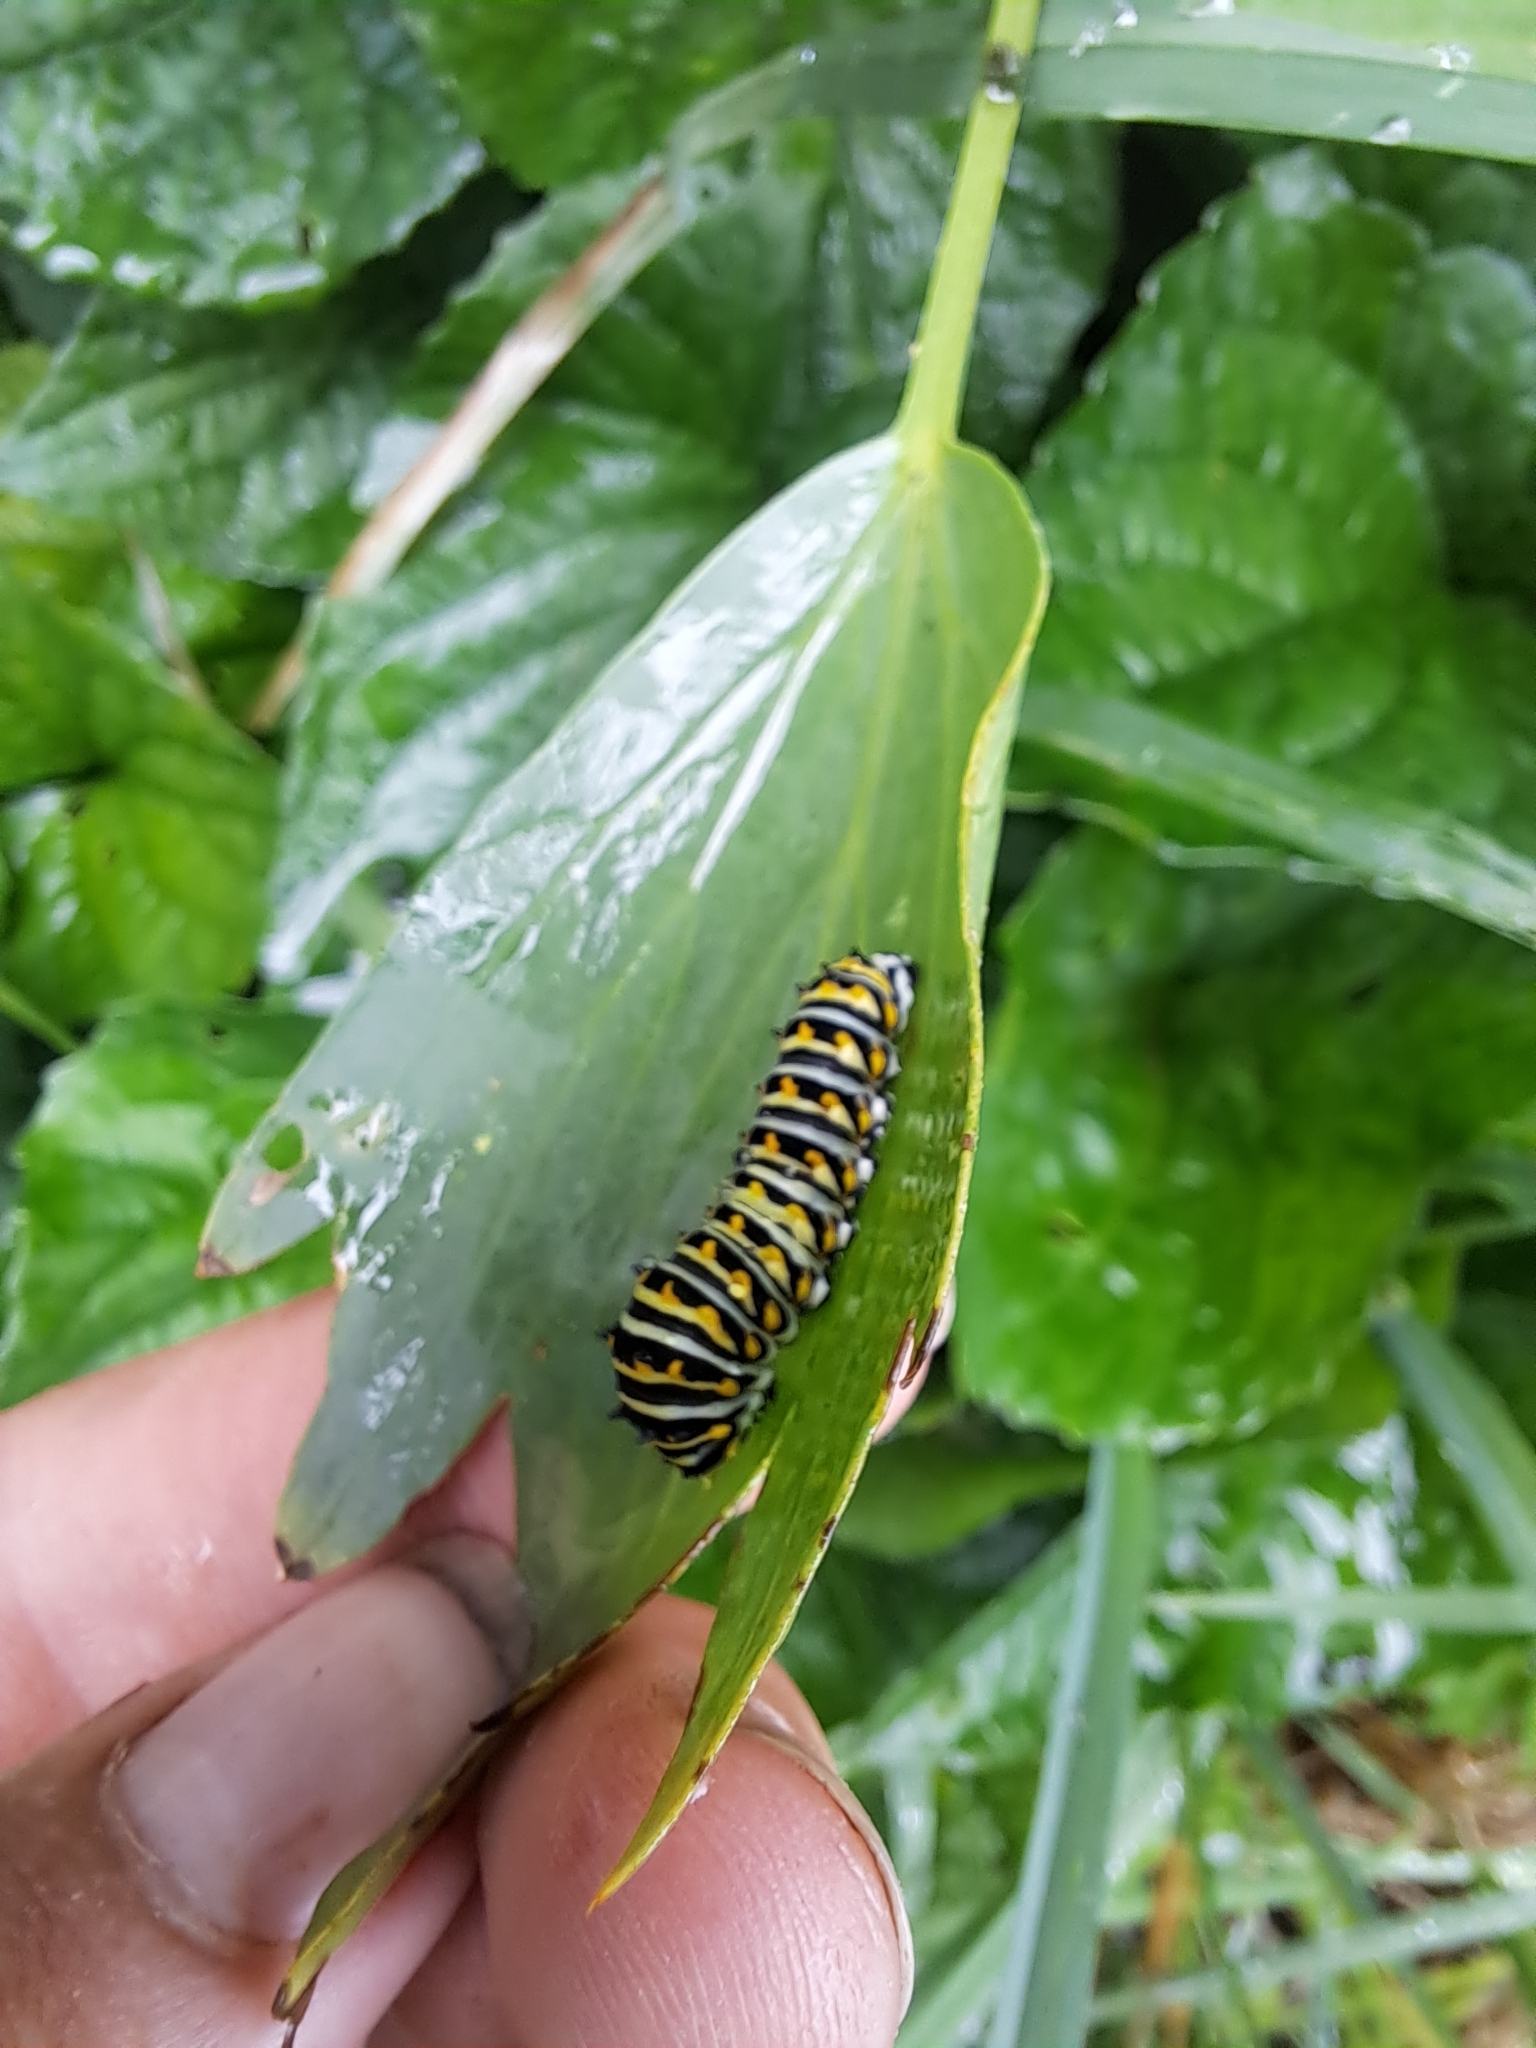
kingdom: Animalia
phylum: Arthropoda
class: Insecta
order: Lepidoptera
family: Papilionidae
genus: Papilio
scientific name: Papilio polyxenes
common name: Black swallowtail
